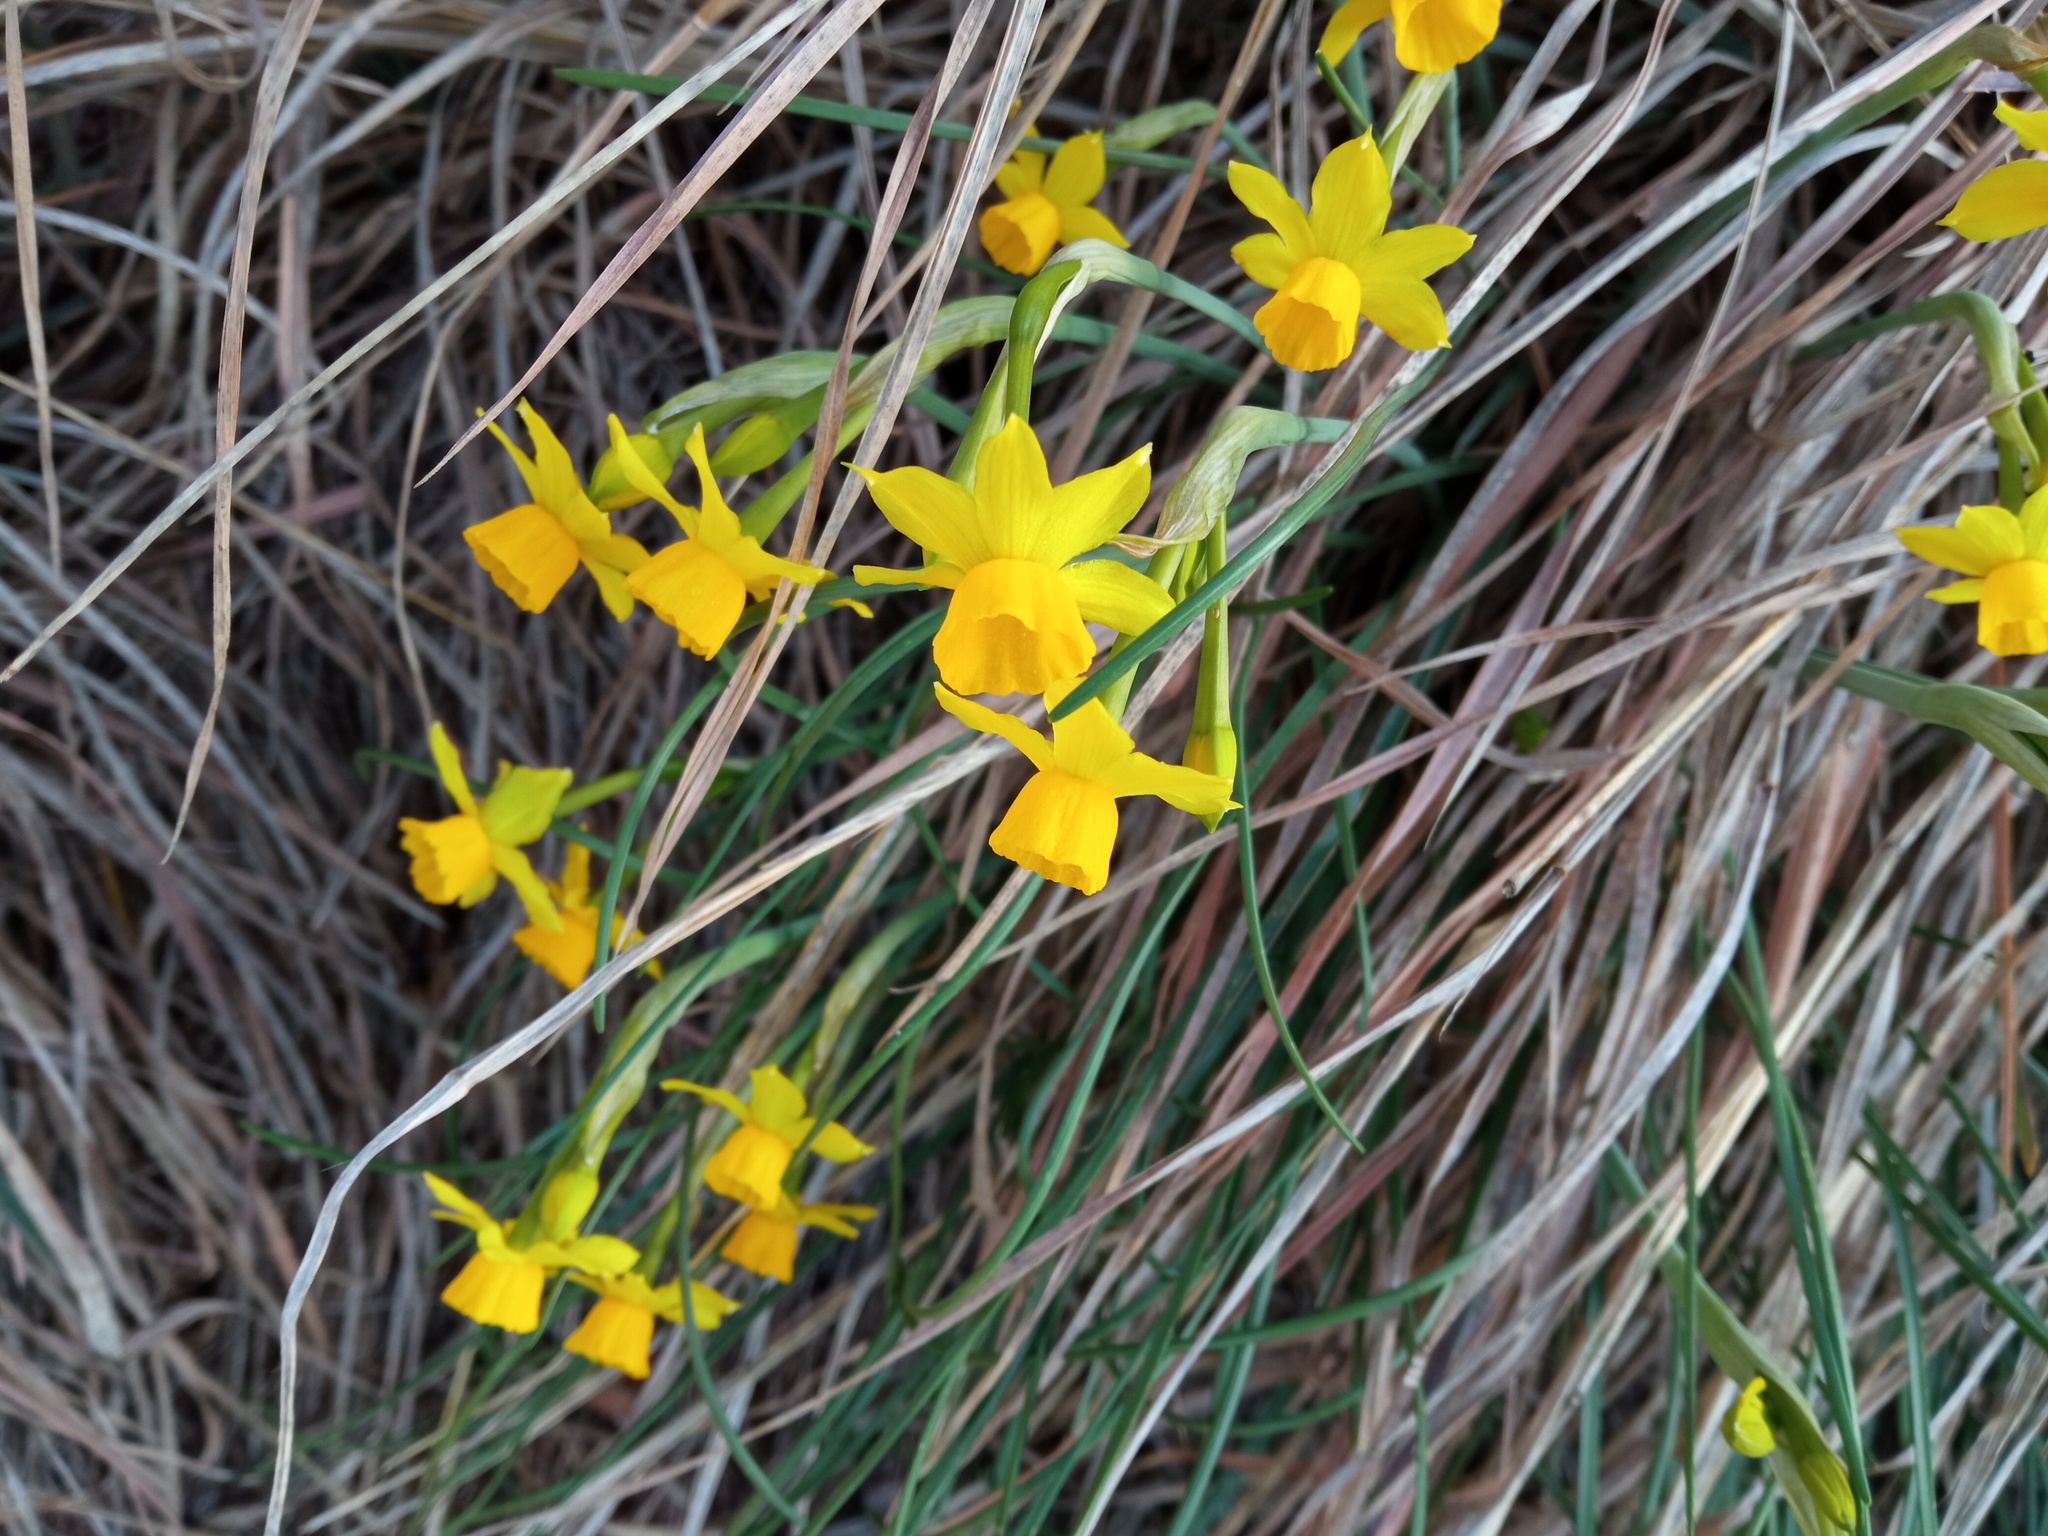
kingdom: Plantae
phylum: Tracheophyta
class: Liliopsida
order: Asparagales
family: Amaryllidaceae
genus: Narcissus
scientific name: Narcissus assoanus
